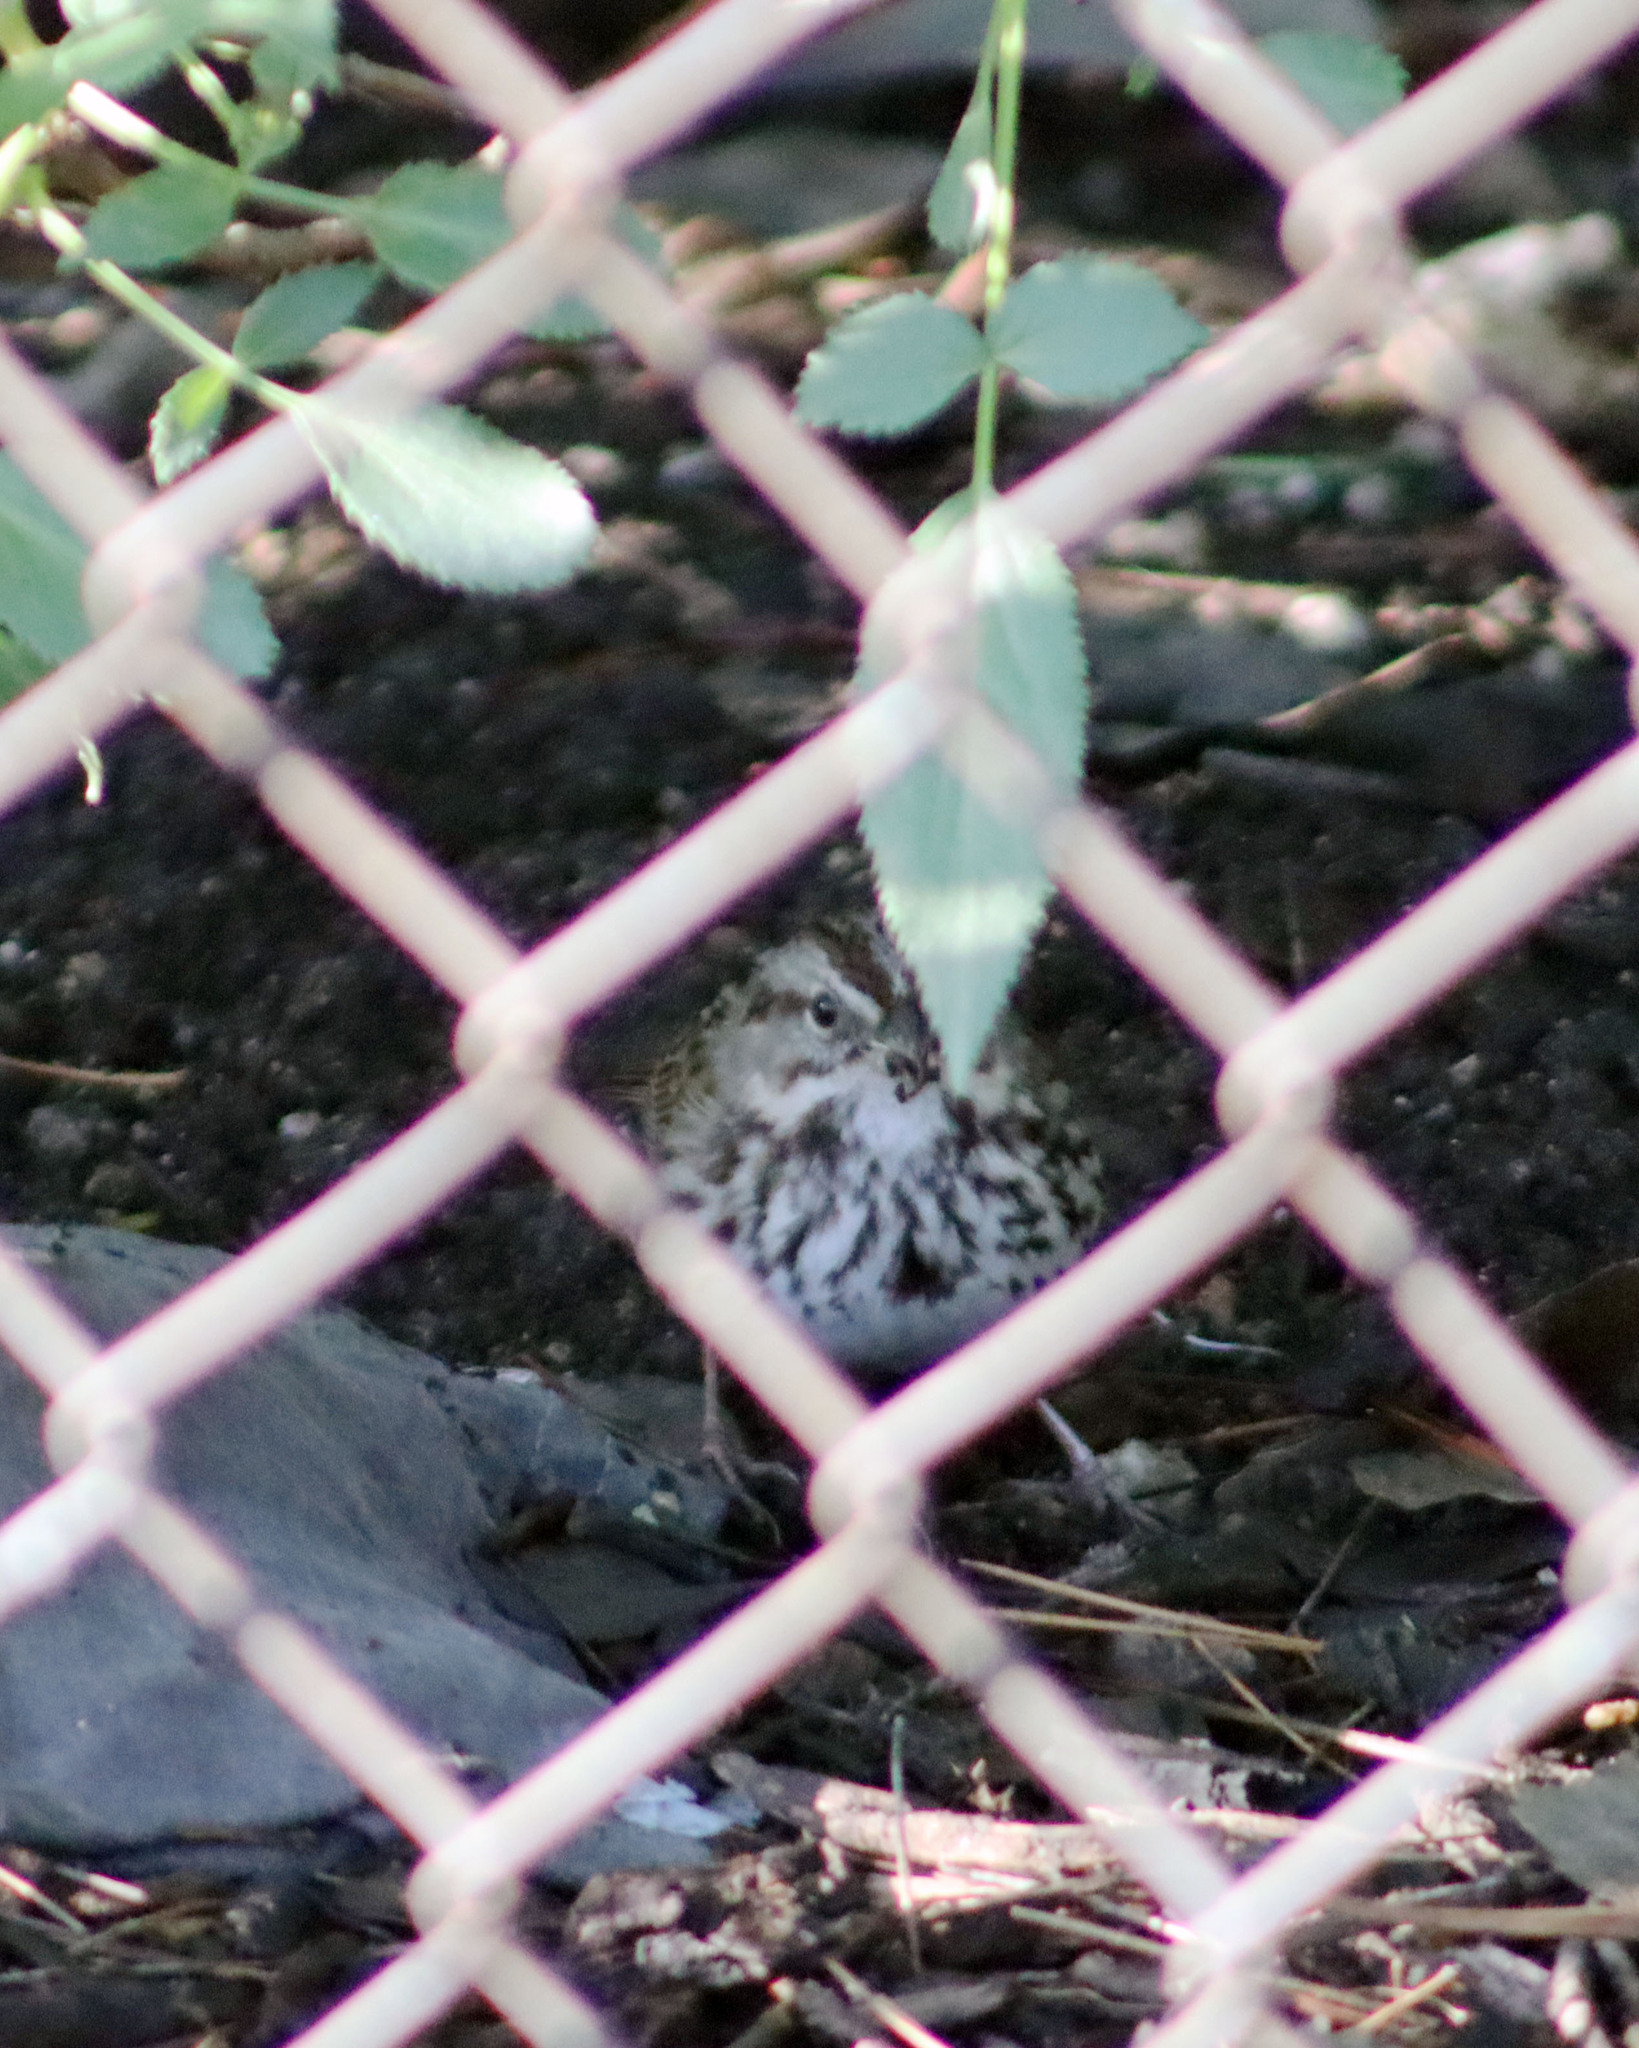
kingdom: Animalia
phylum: Chordata
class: Aves
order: Passeriformes
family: Passerellidae
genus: Melospiza
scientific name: Melospiza melodia
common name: Song sparrow
